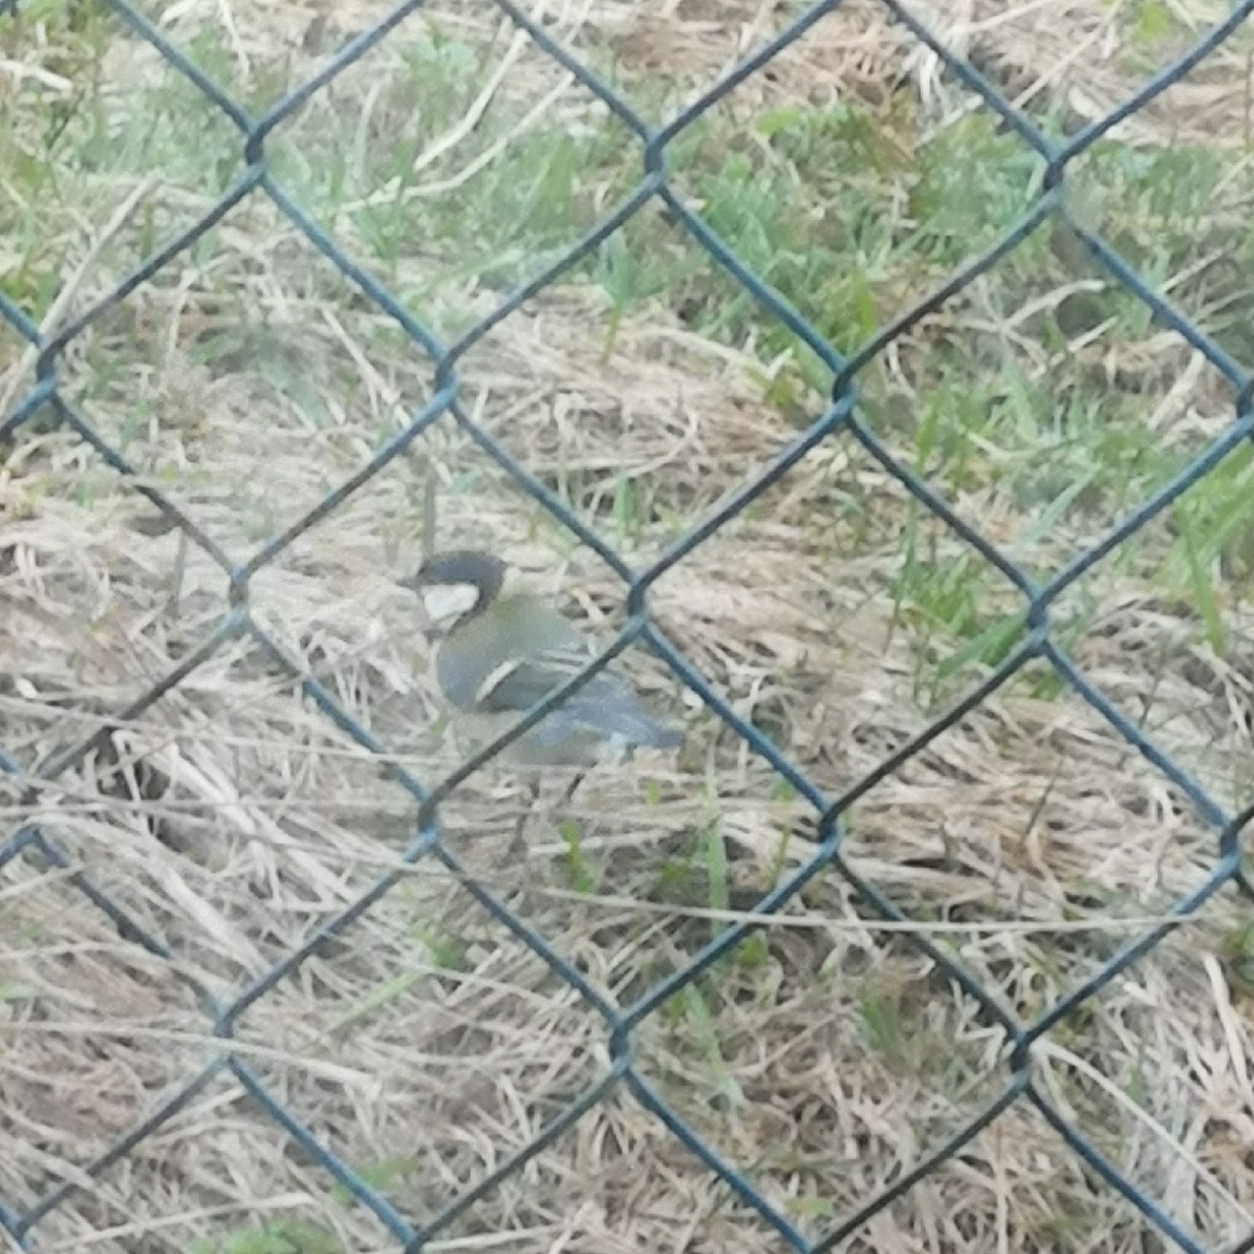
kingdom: Animalia
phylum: Chordata
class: Aves
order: Passeriformes
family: Paridae
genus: Parus
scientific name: Parus major
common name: Great tit
